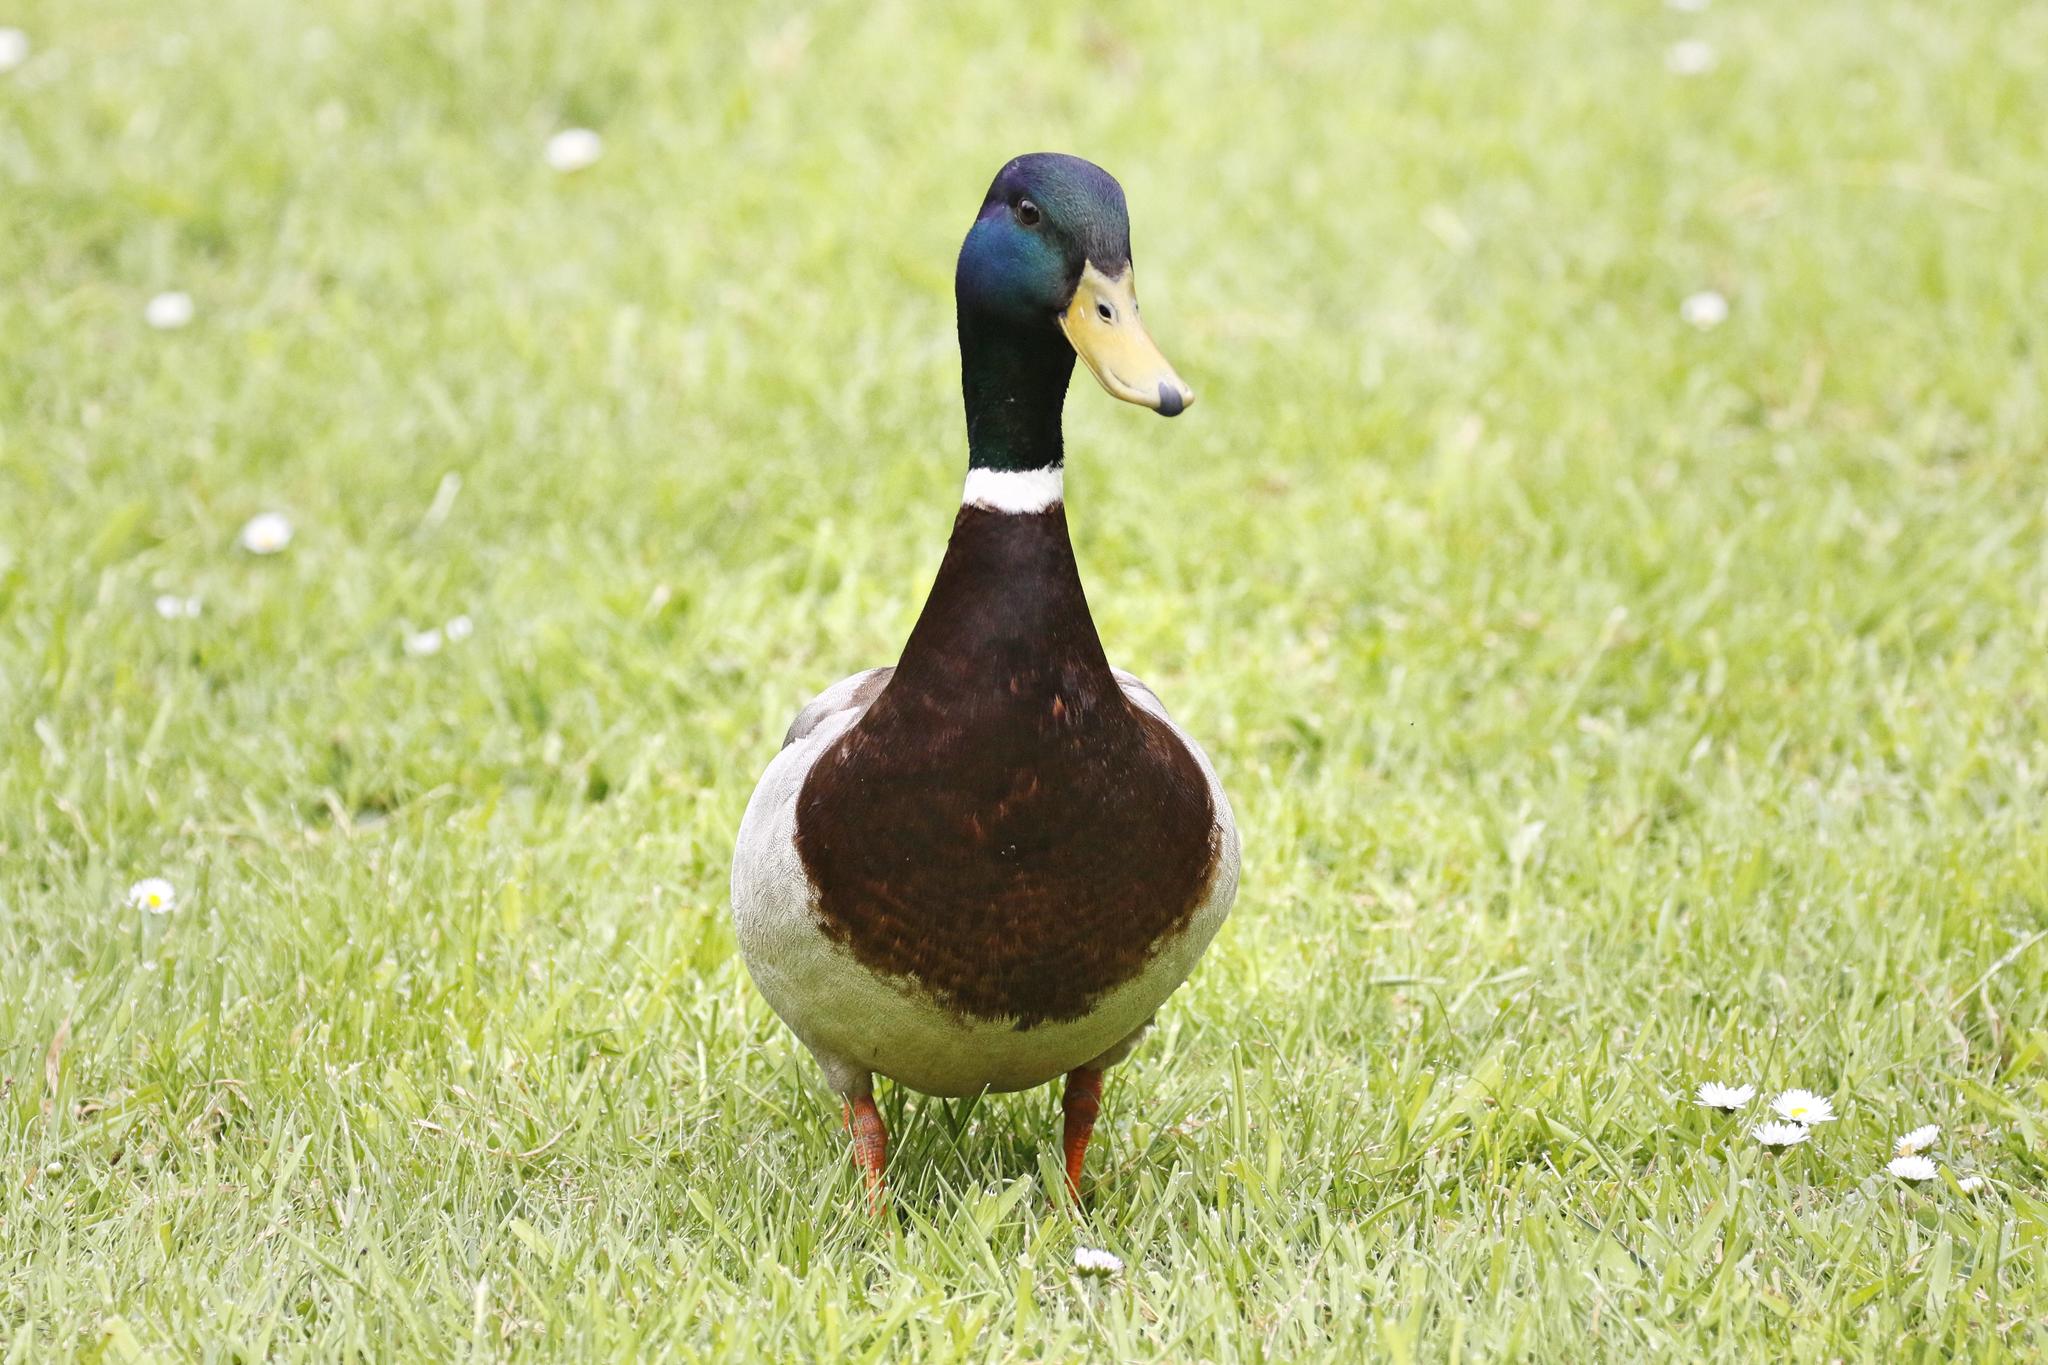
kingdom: Animalia
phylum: Chordata
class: Aves
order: Anseriformes
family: Anatidae
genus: Anas
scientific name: Anas platyrhynchos
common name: Mallard
